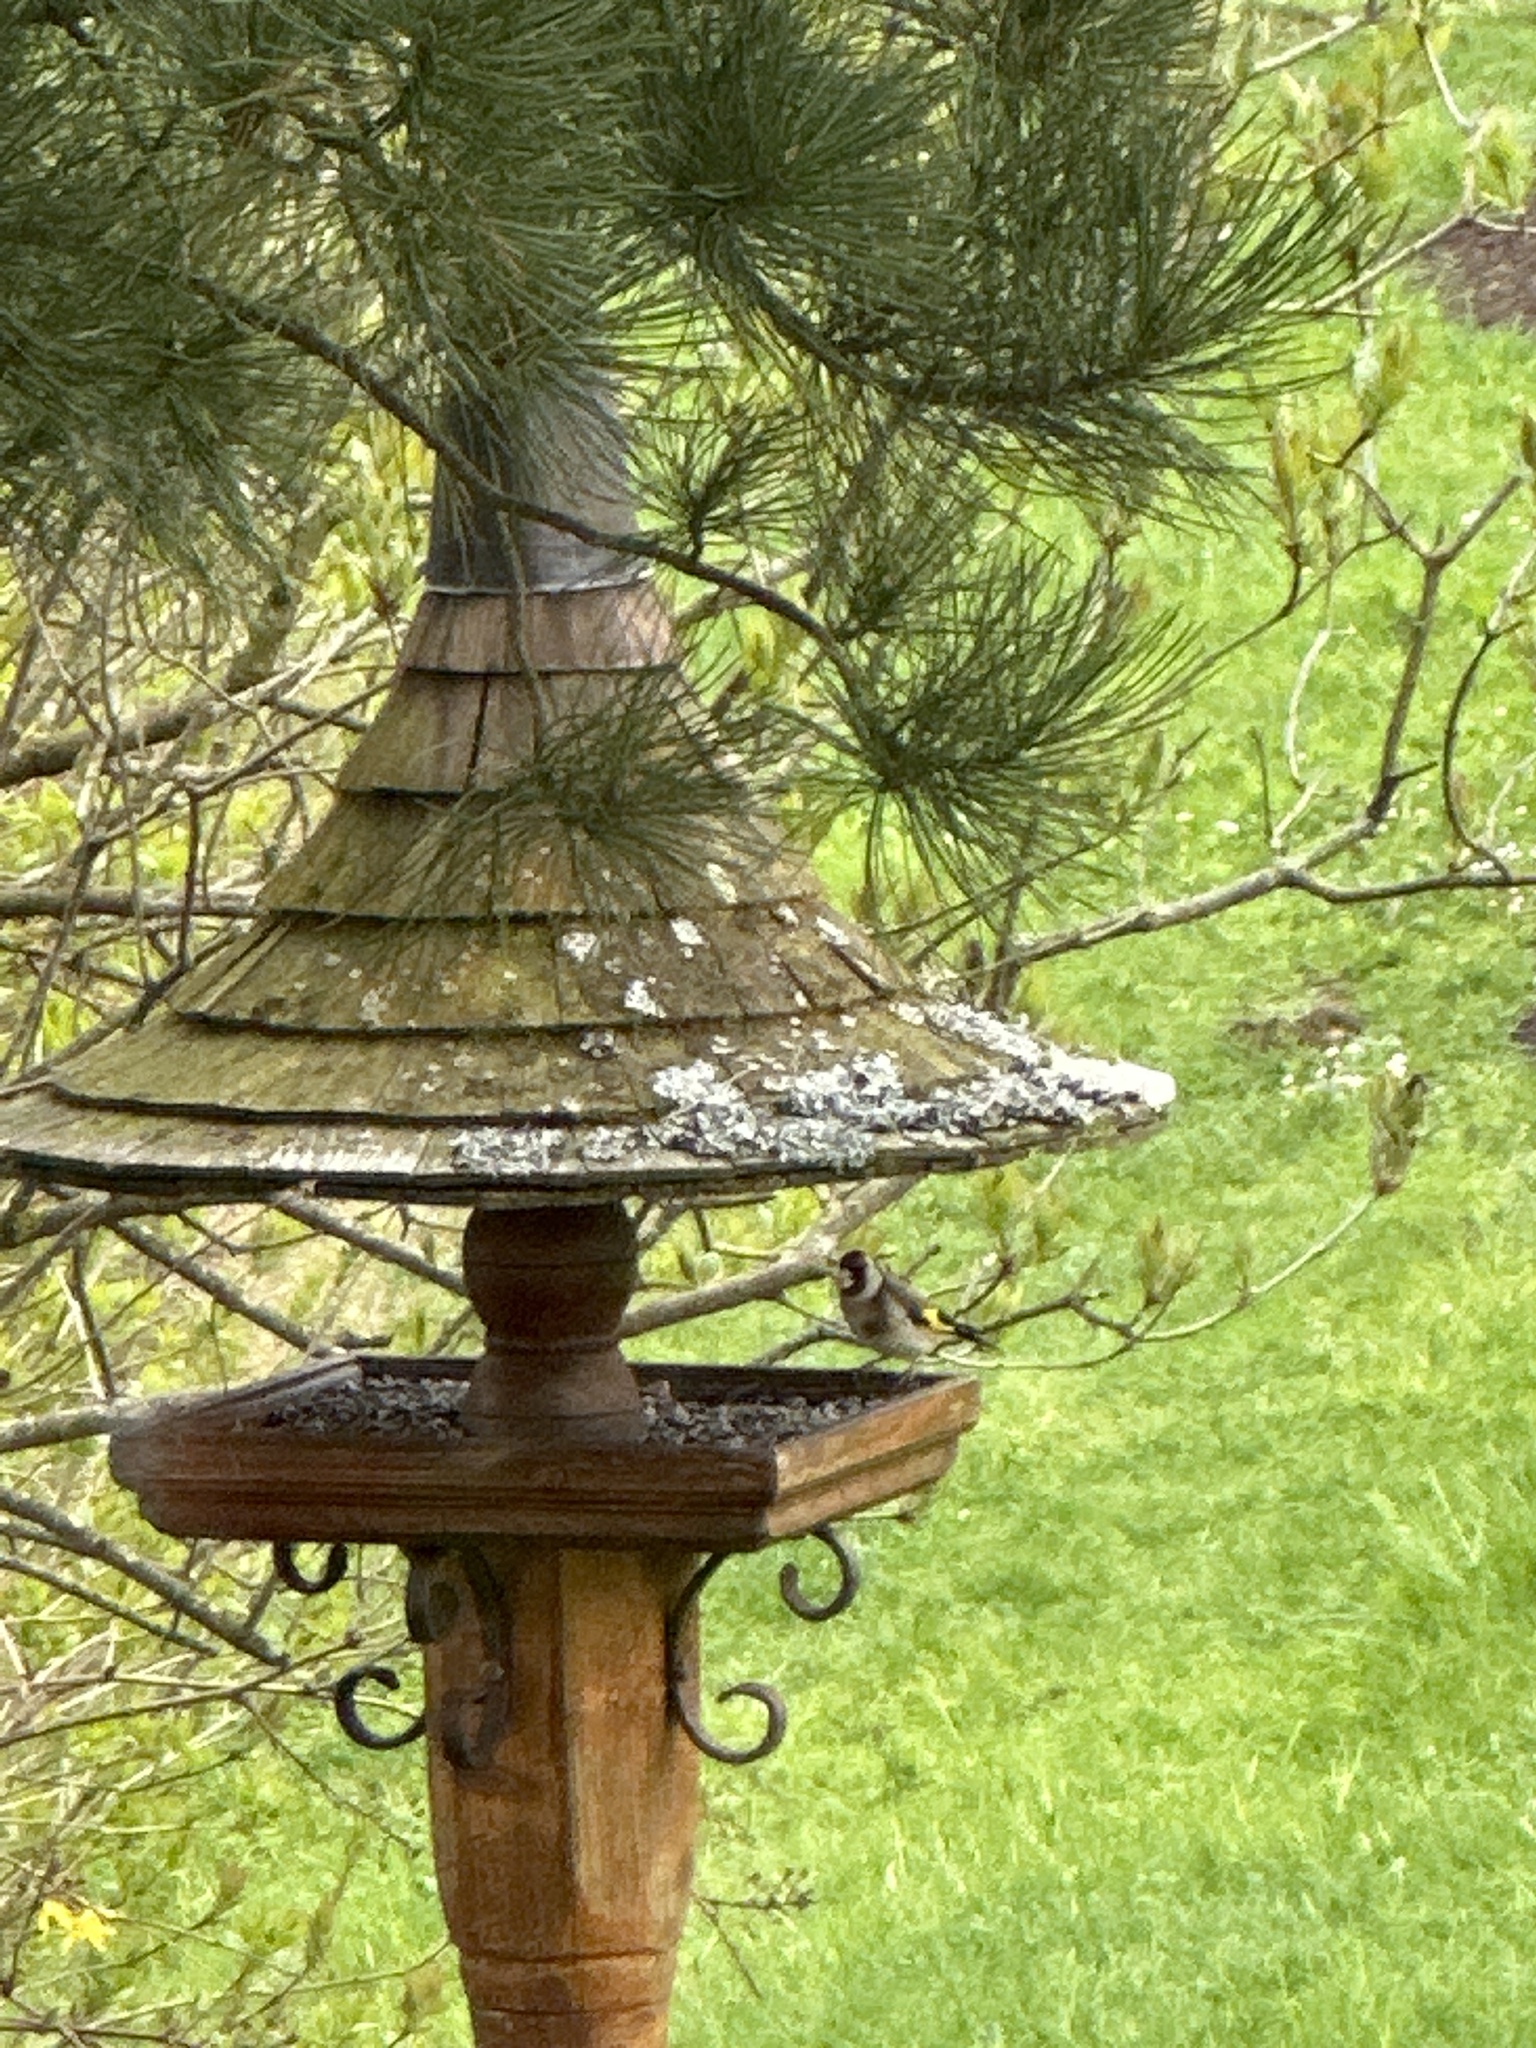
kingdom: Animalia
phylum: Chordata
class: Aves
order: Passeriformes
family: Fringillidae
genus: Carduelis
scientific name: Carduelis carduelis
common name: European goldfinch
